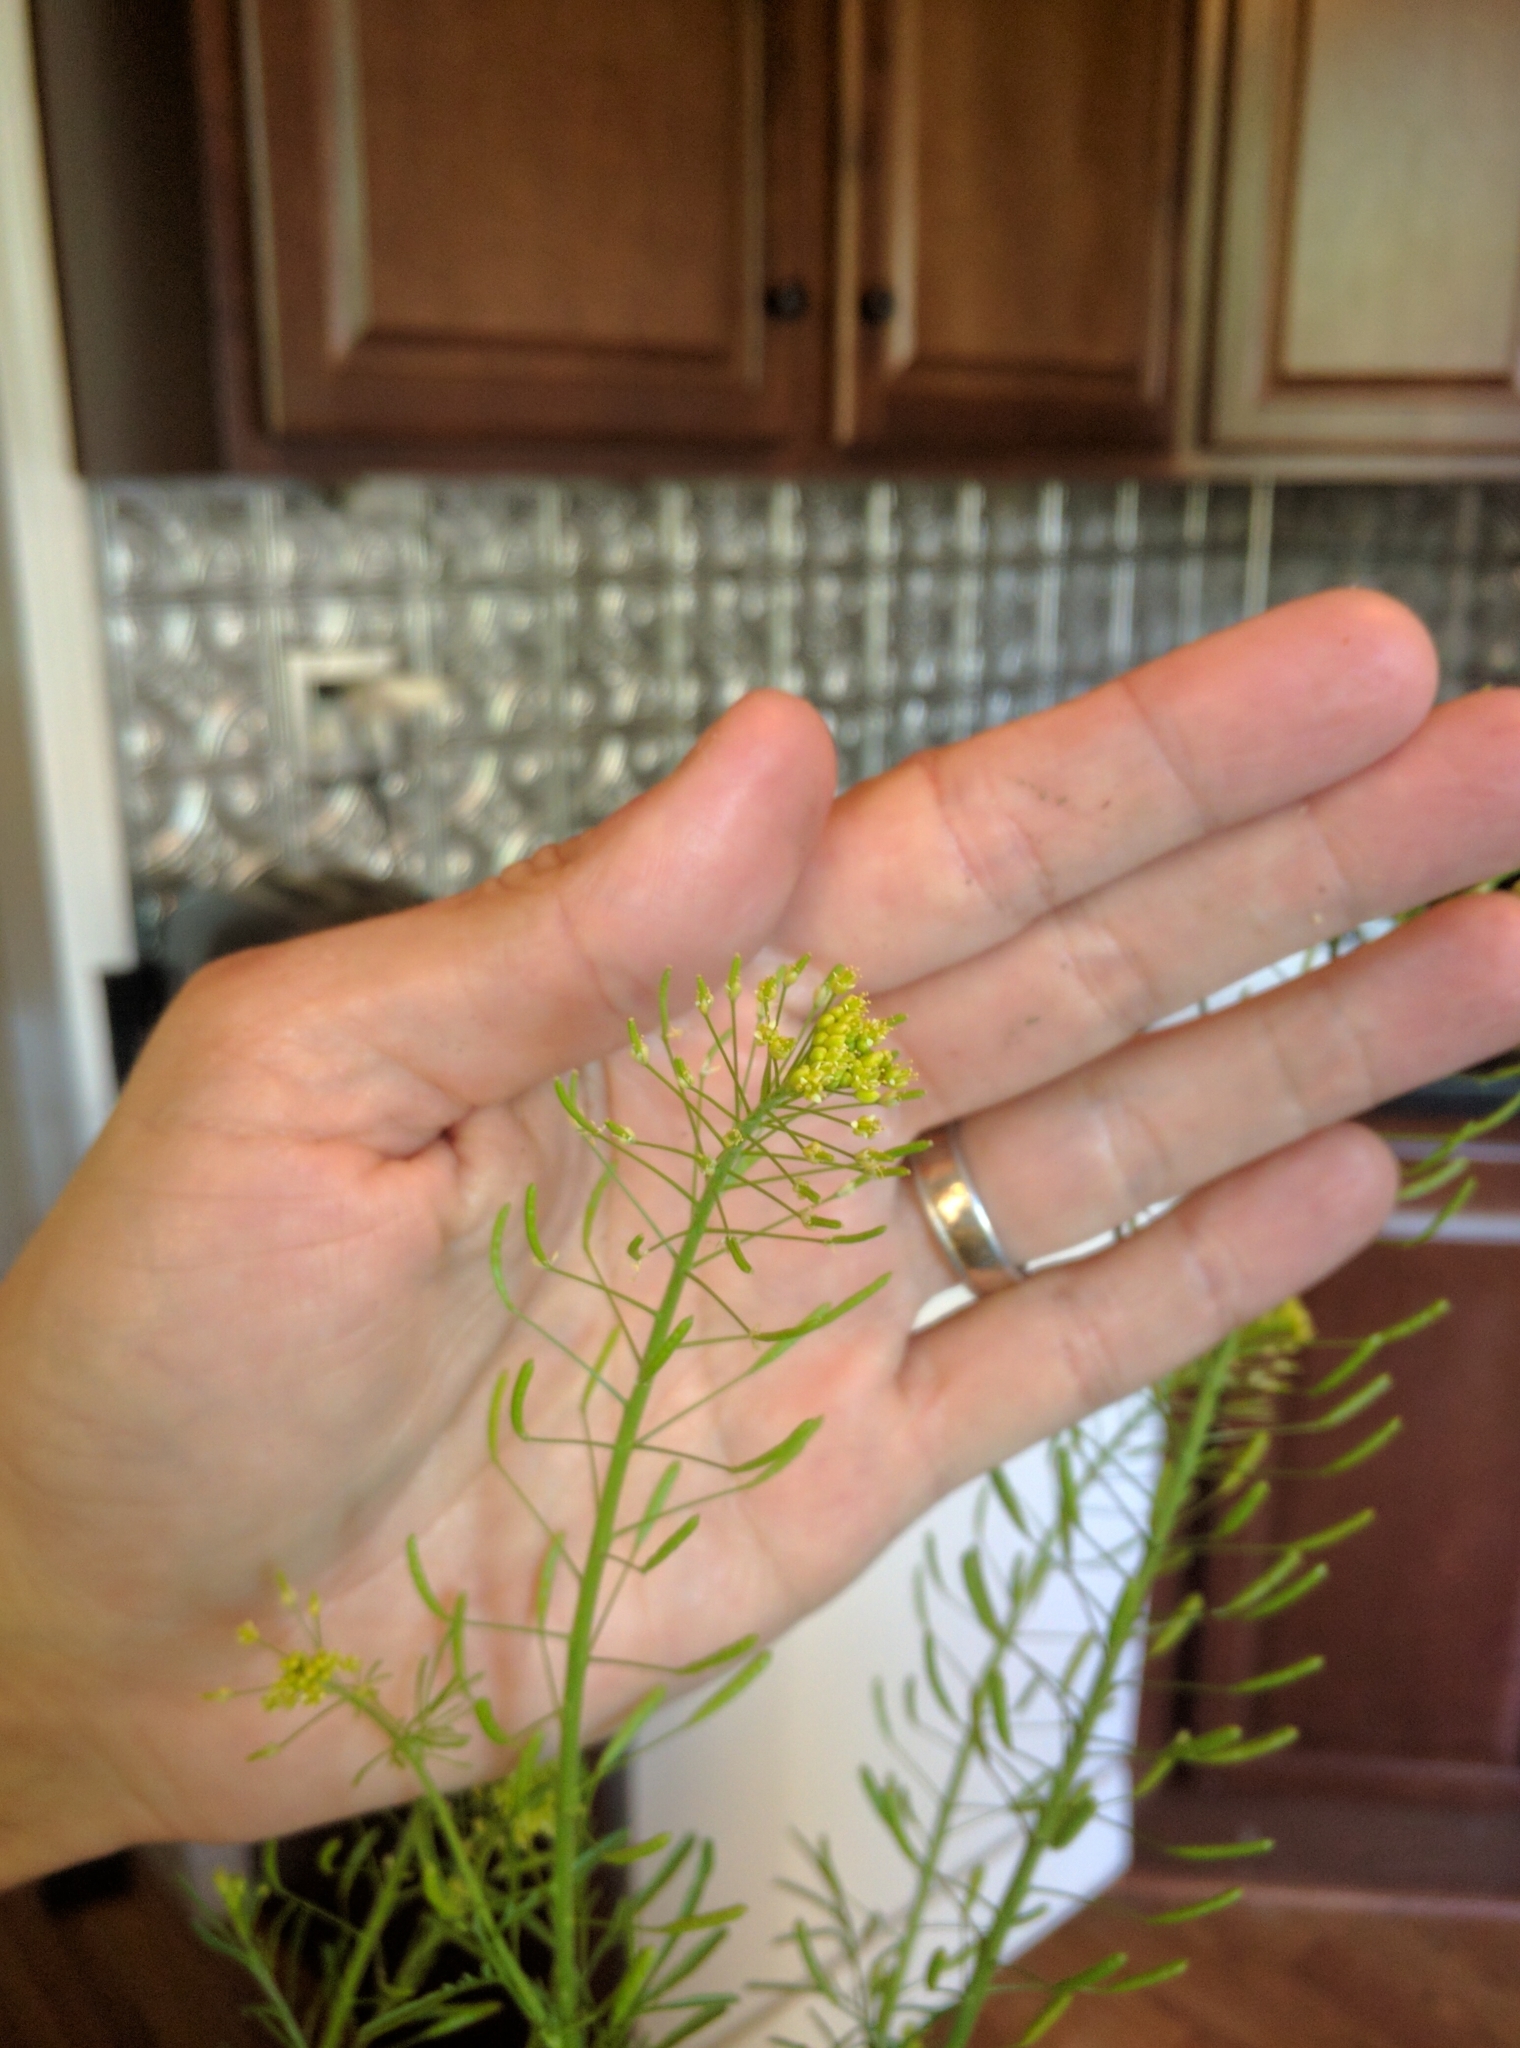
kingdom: Plantae
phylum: Tracheophyta
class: Magnoliopsida
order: Brassicales
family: Brassicaceae
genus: Descurainia
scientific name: Descurainia pinnata
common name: Western tansy mustard
